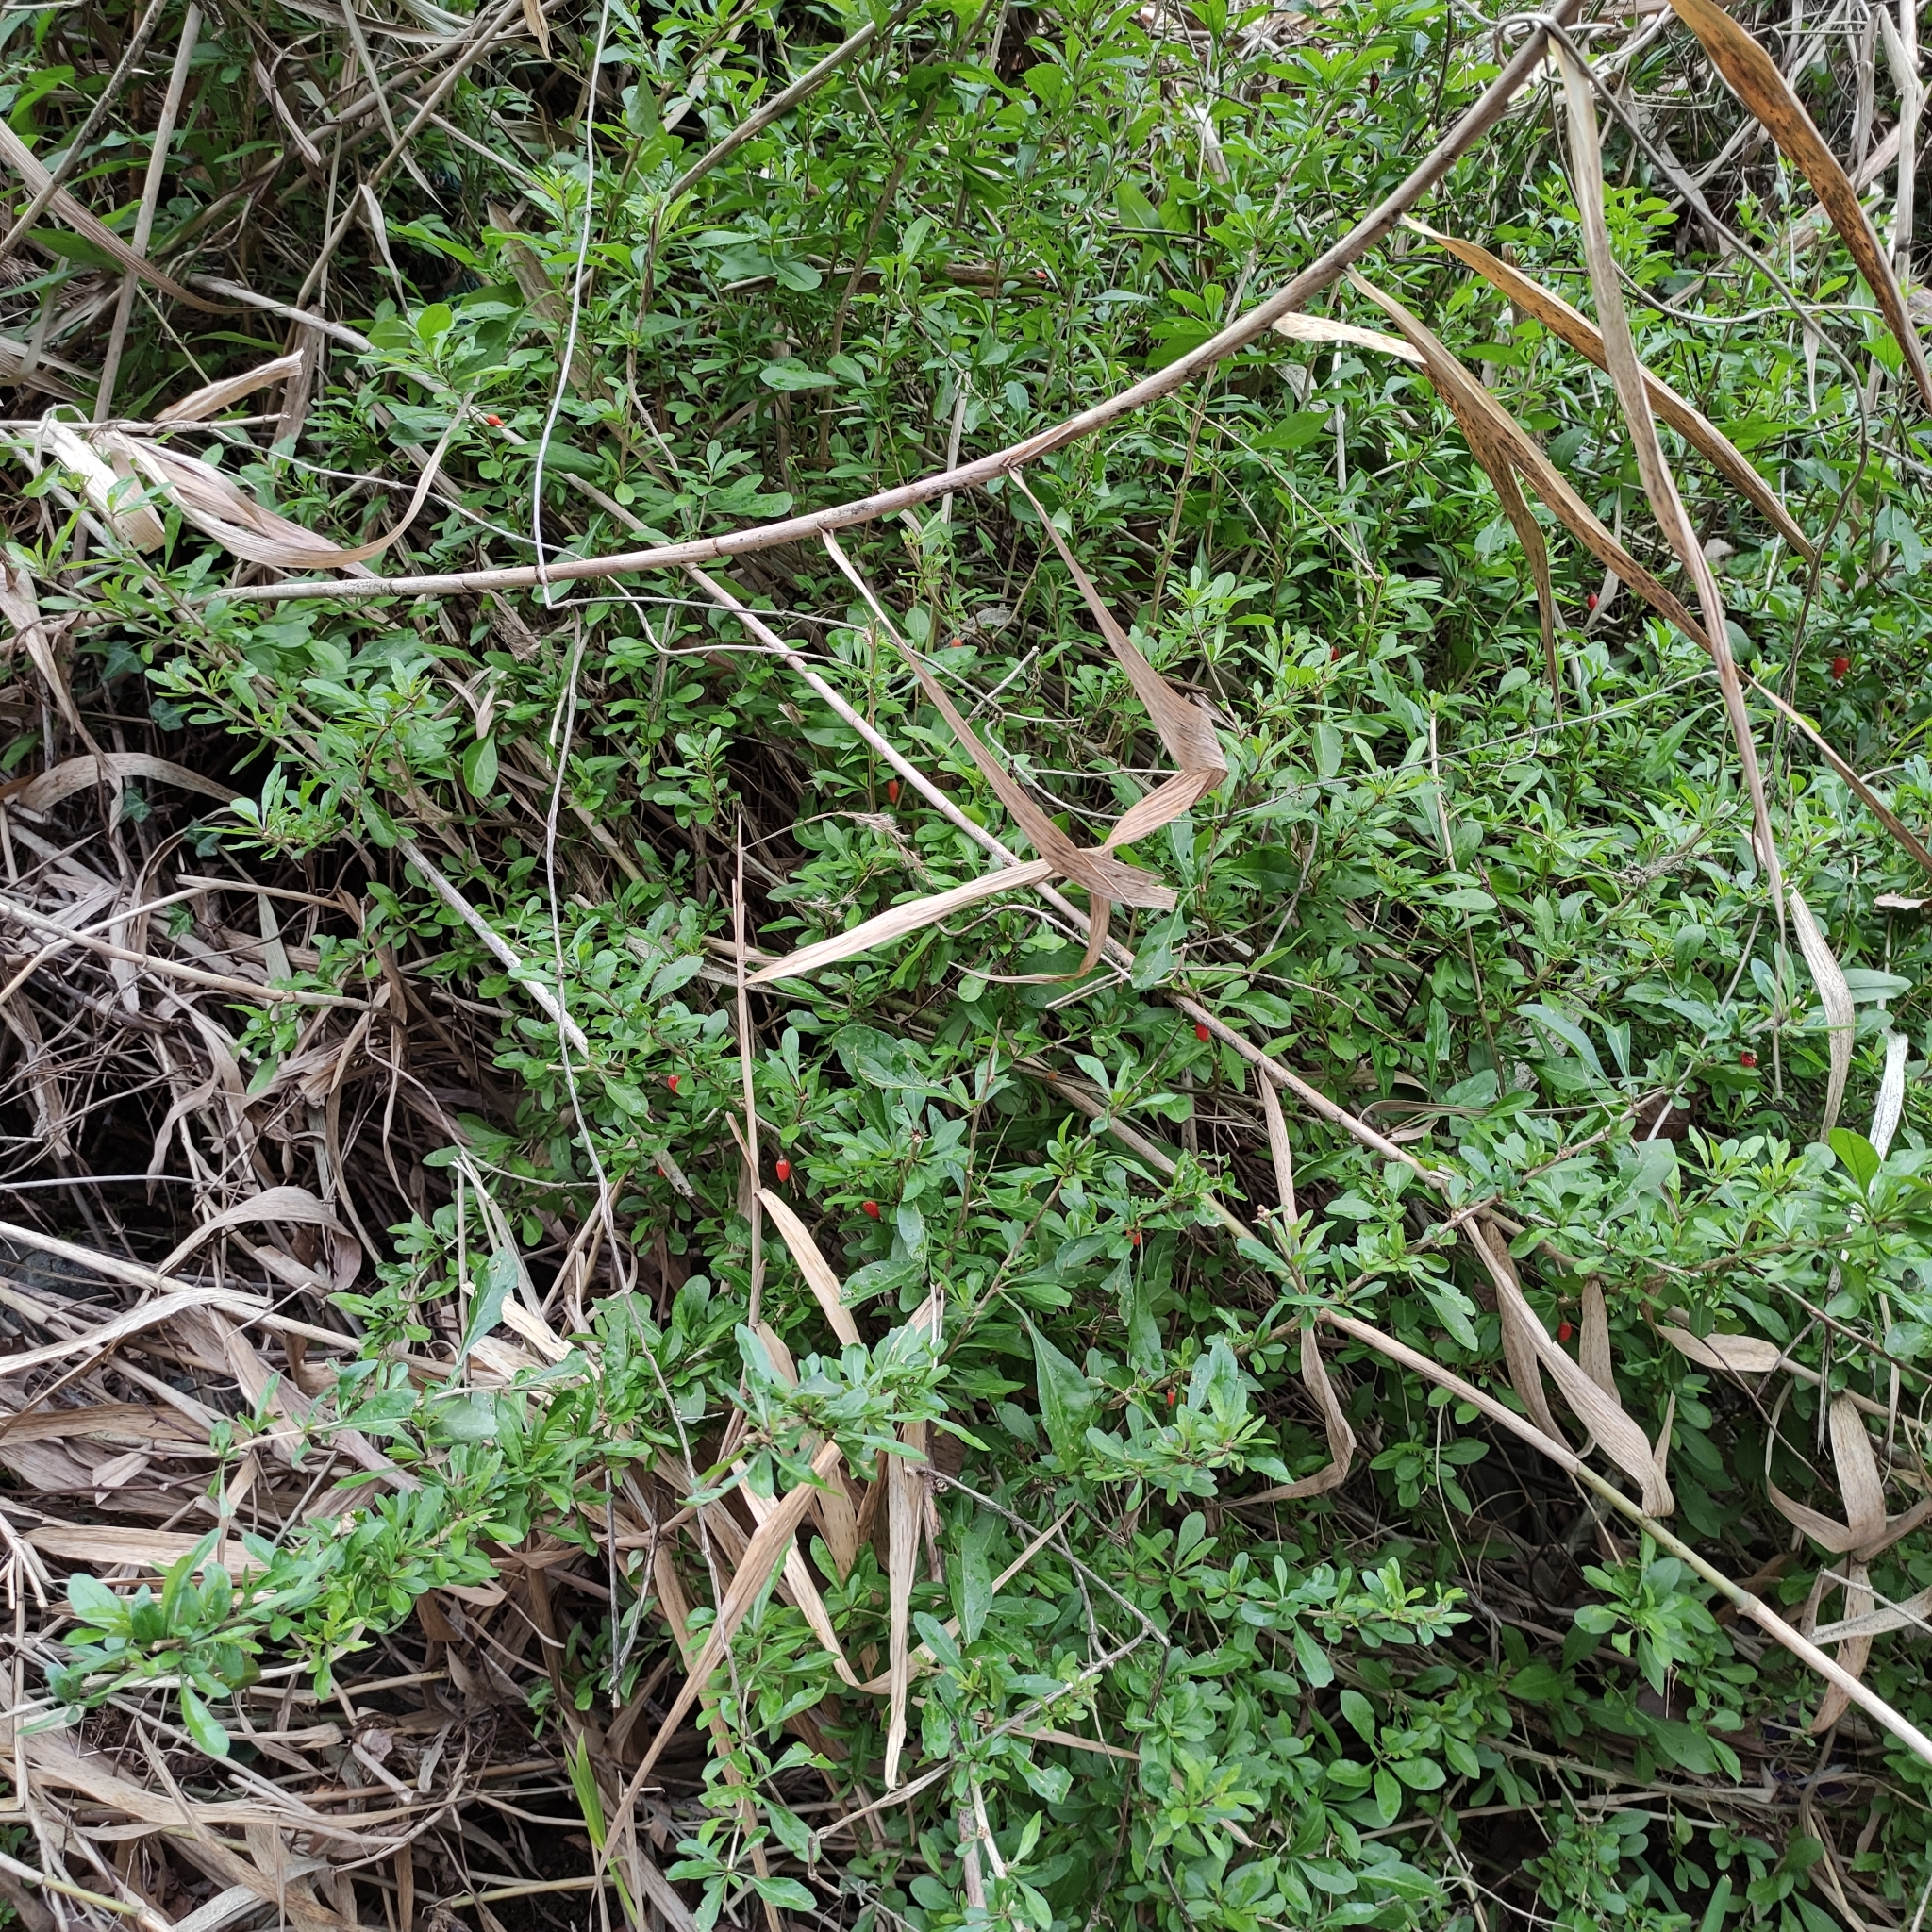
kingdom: Plantae
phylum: Tracheophyta
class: Magnoliopsida
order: Solanales
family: Solanaceae
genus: Lycium
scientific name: Lycium chinense
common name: Chinese teaplant
